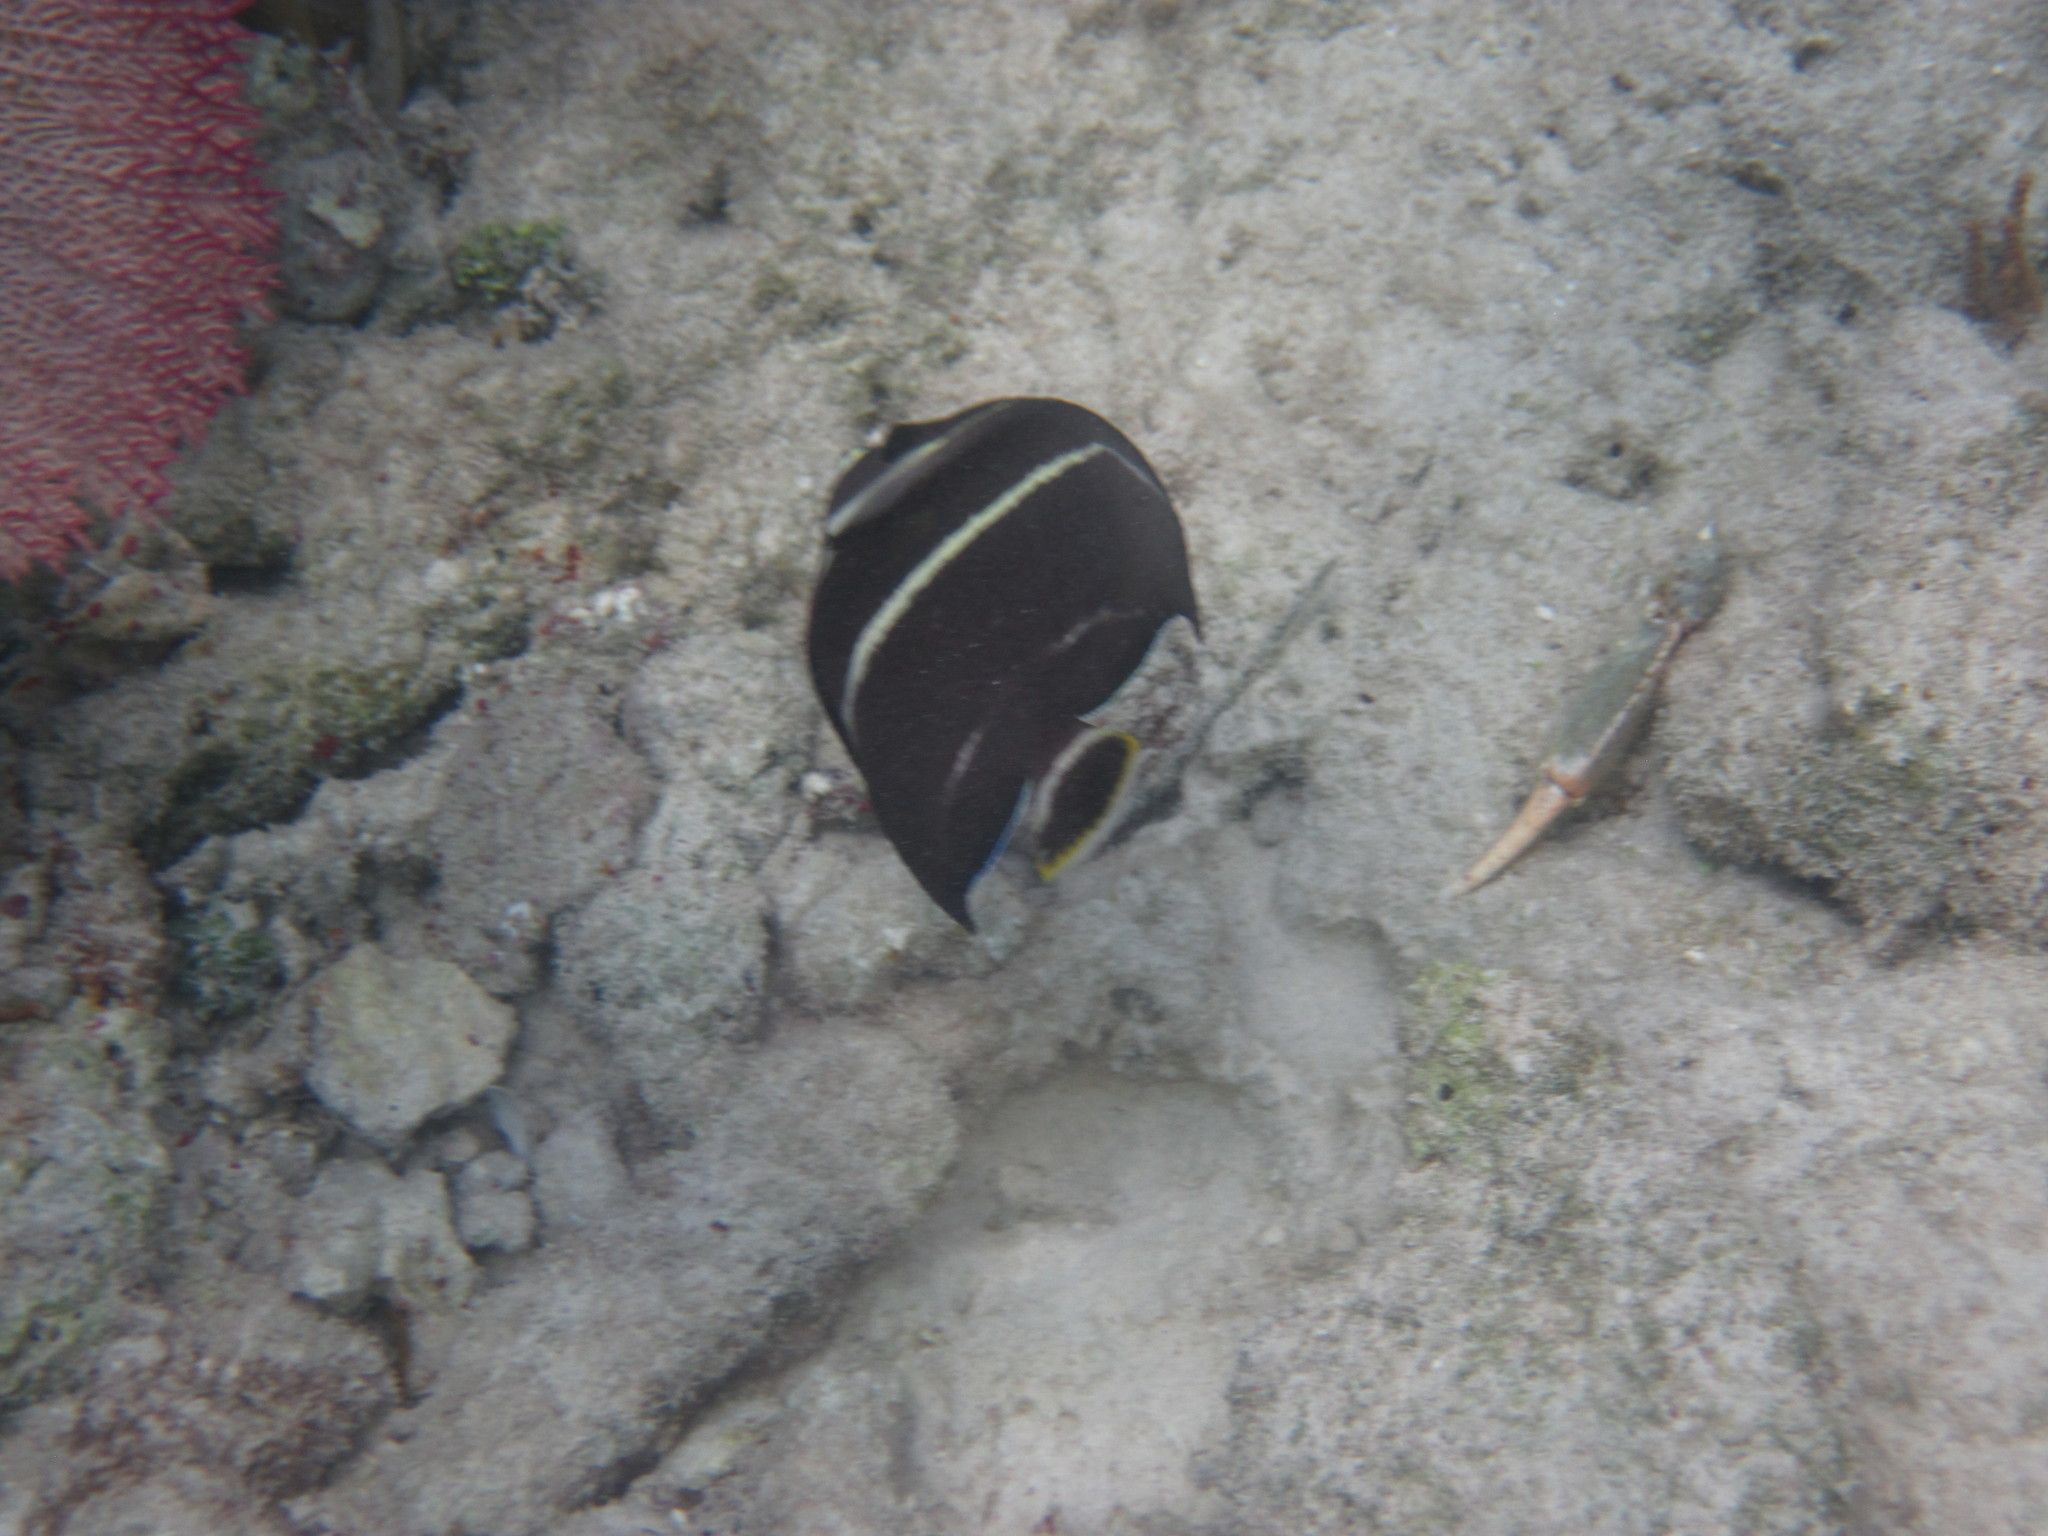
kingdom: Animalia
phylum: Chordata
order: Perciformes
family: Pomacanthidae
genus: Pomacanthus
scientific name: Pomacanthus paru
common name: French angelfish
